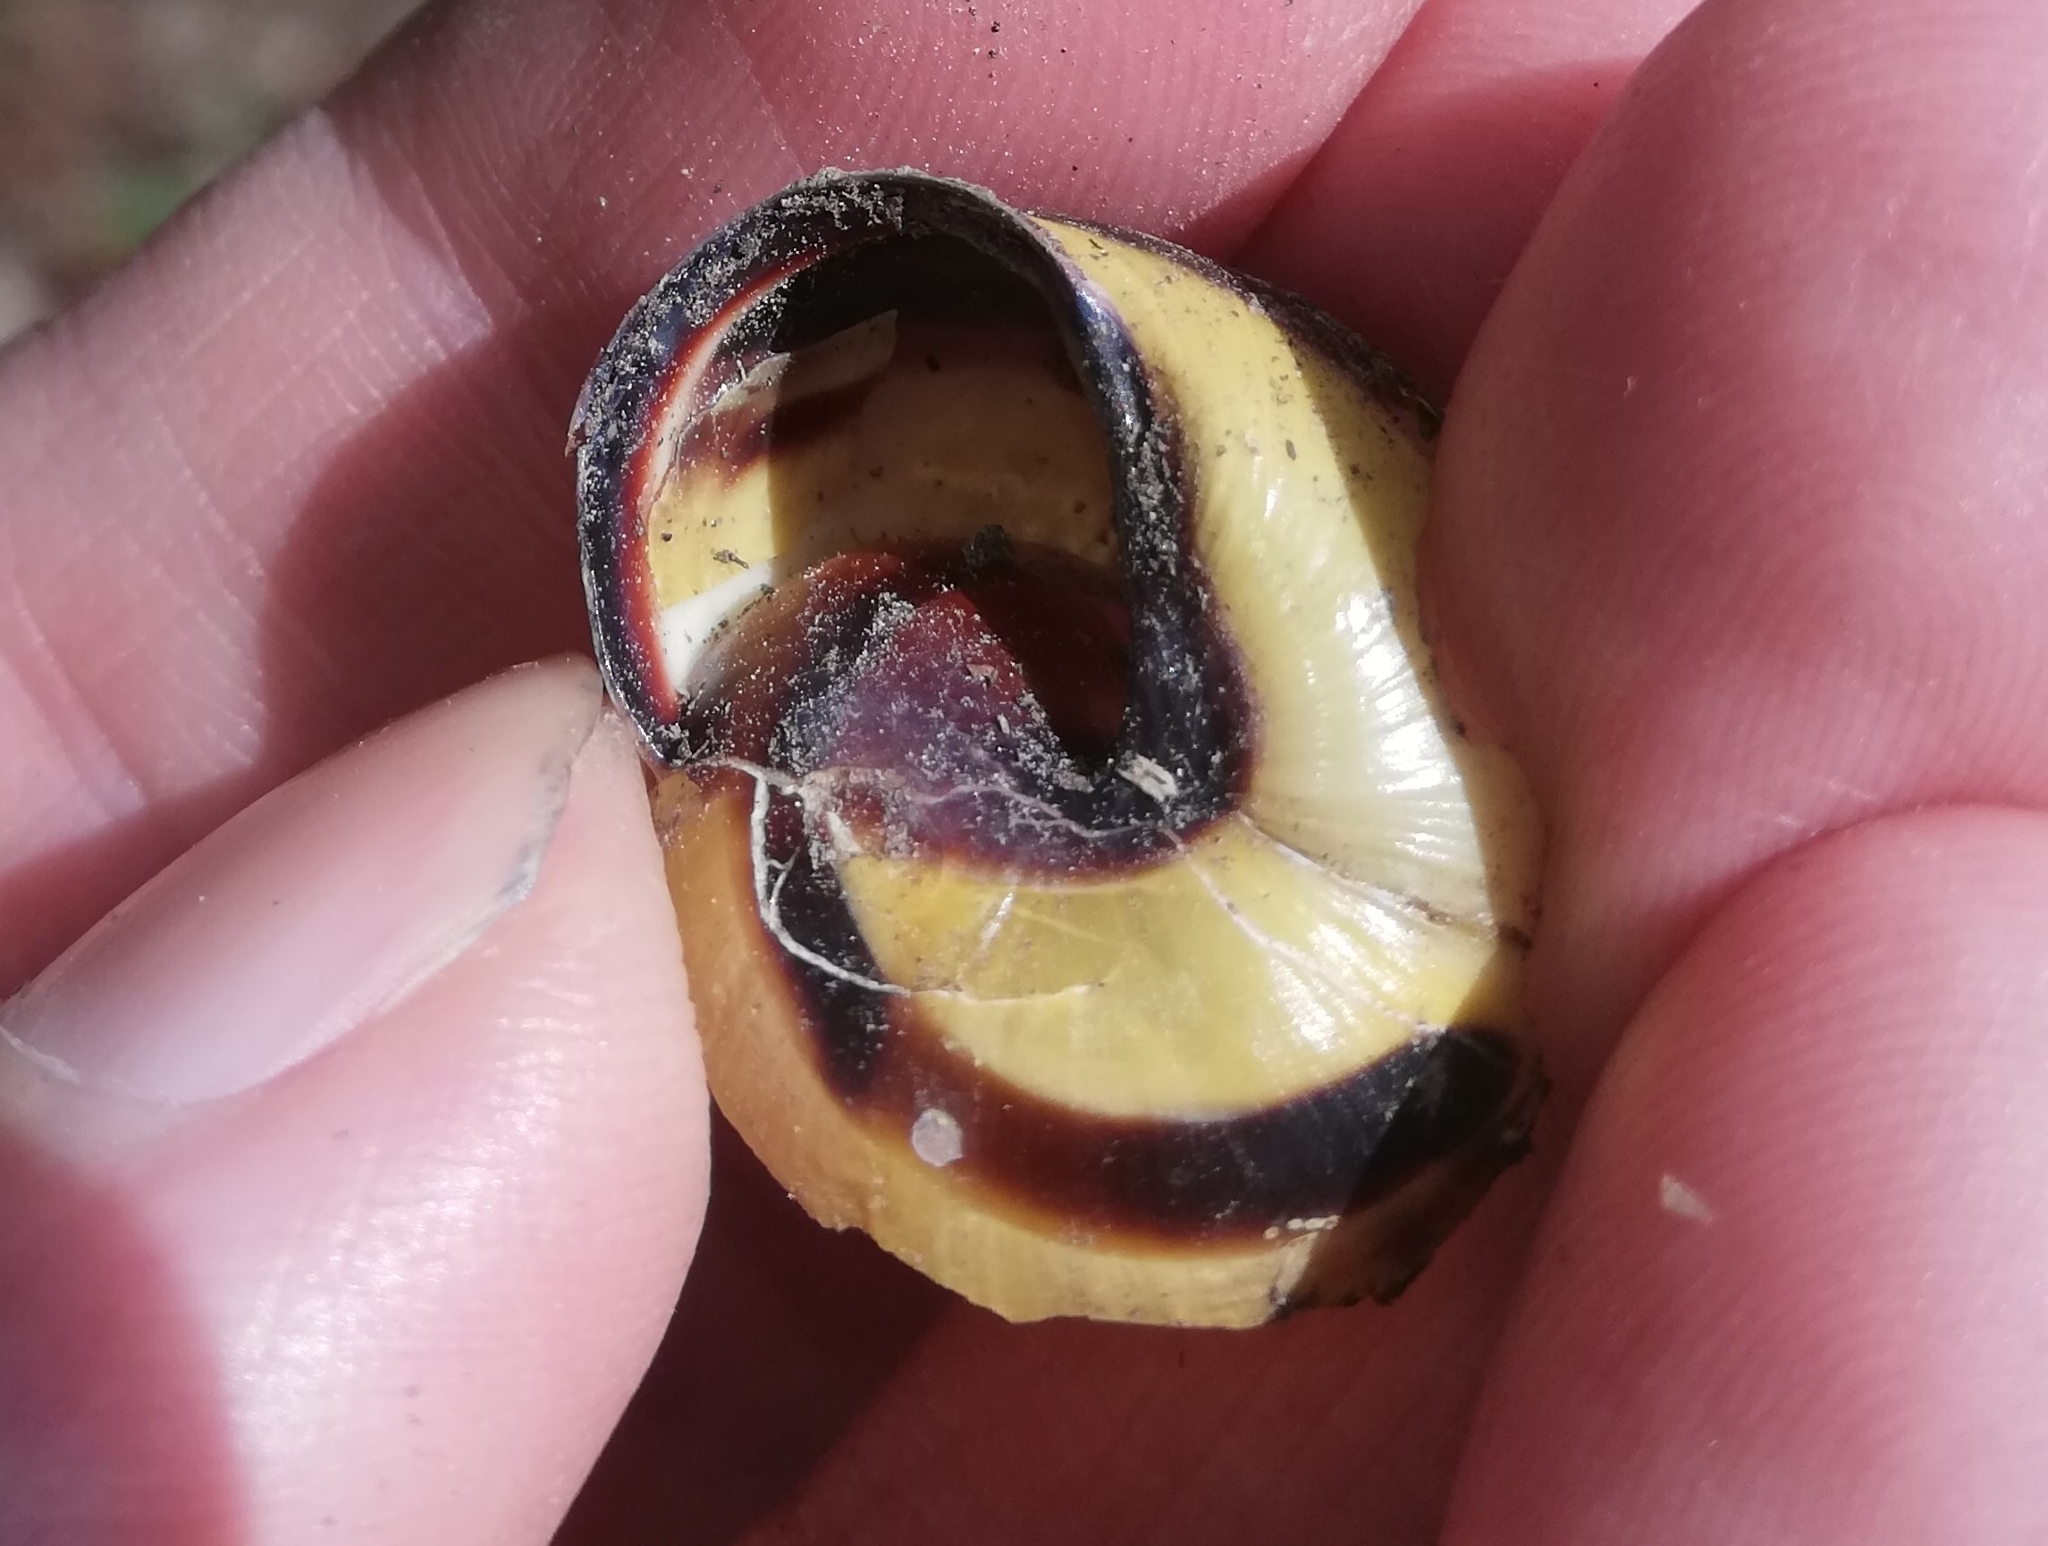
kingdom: Animalia
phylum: Mollusca
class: Gastropoda
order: Stylommatophora
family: Helicidae
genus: Cepaea
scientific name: Cepaea nemoralis
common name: Grovesnail
